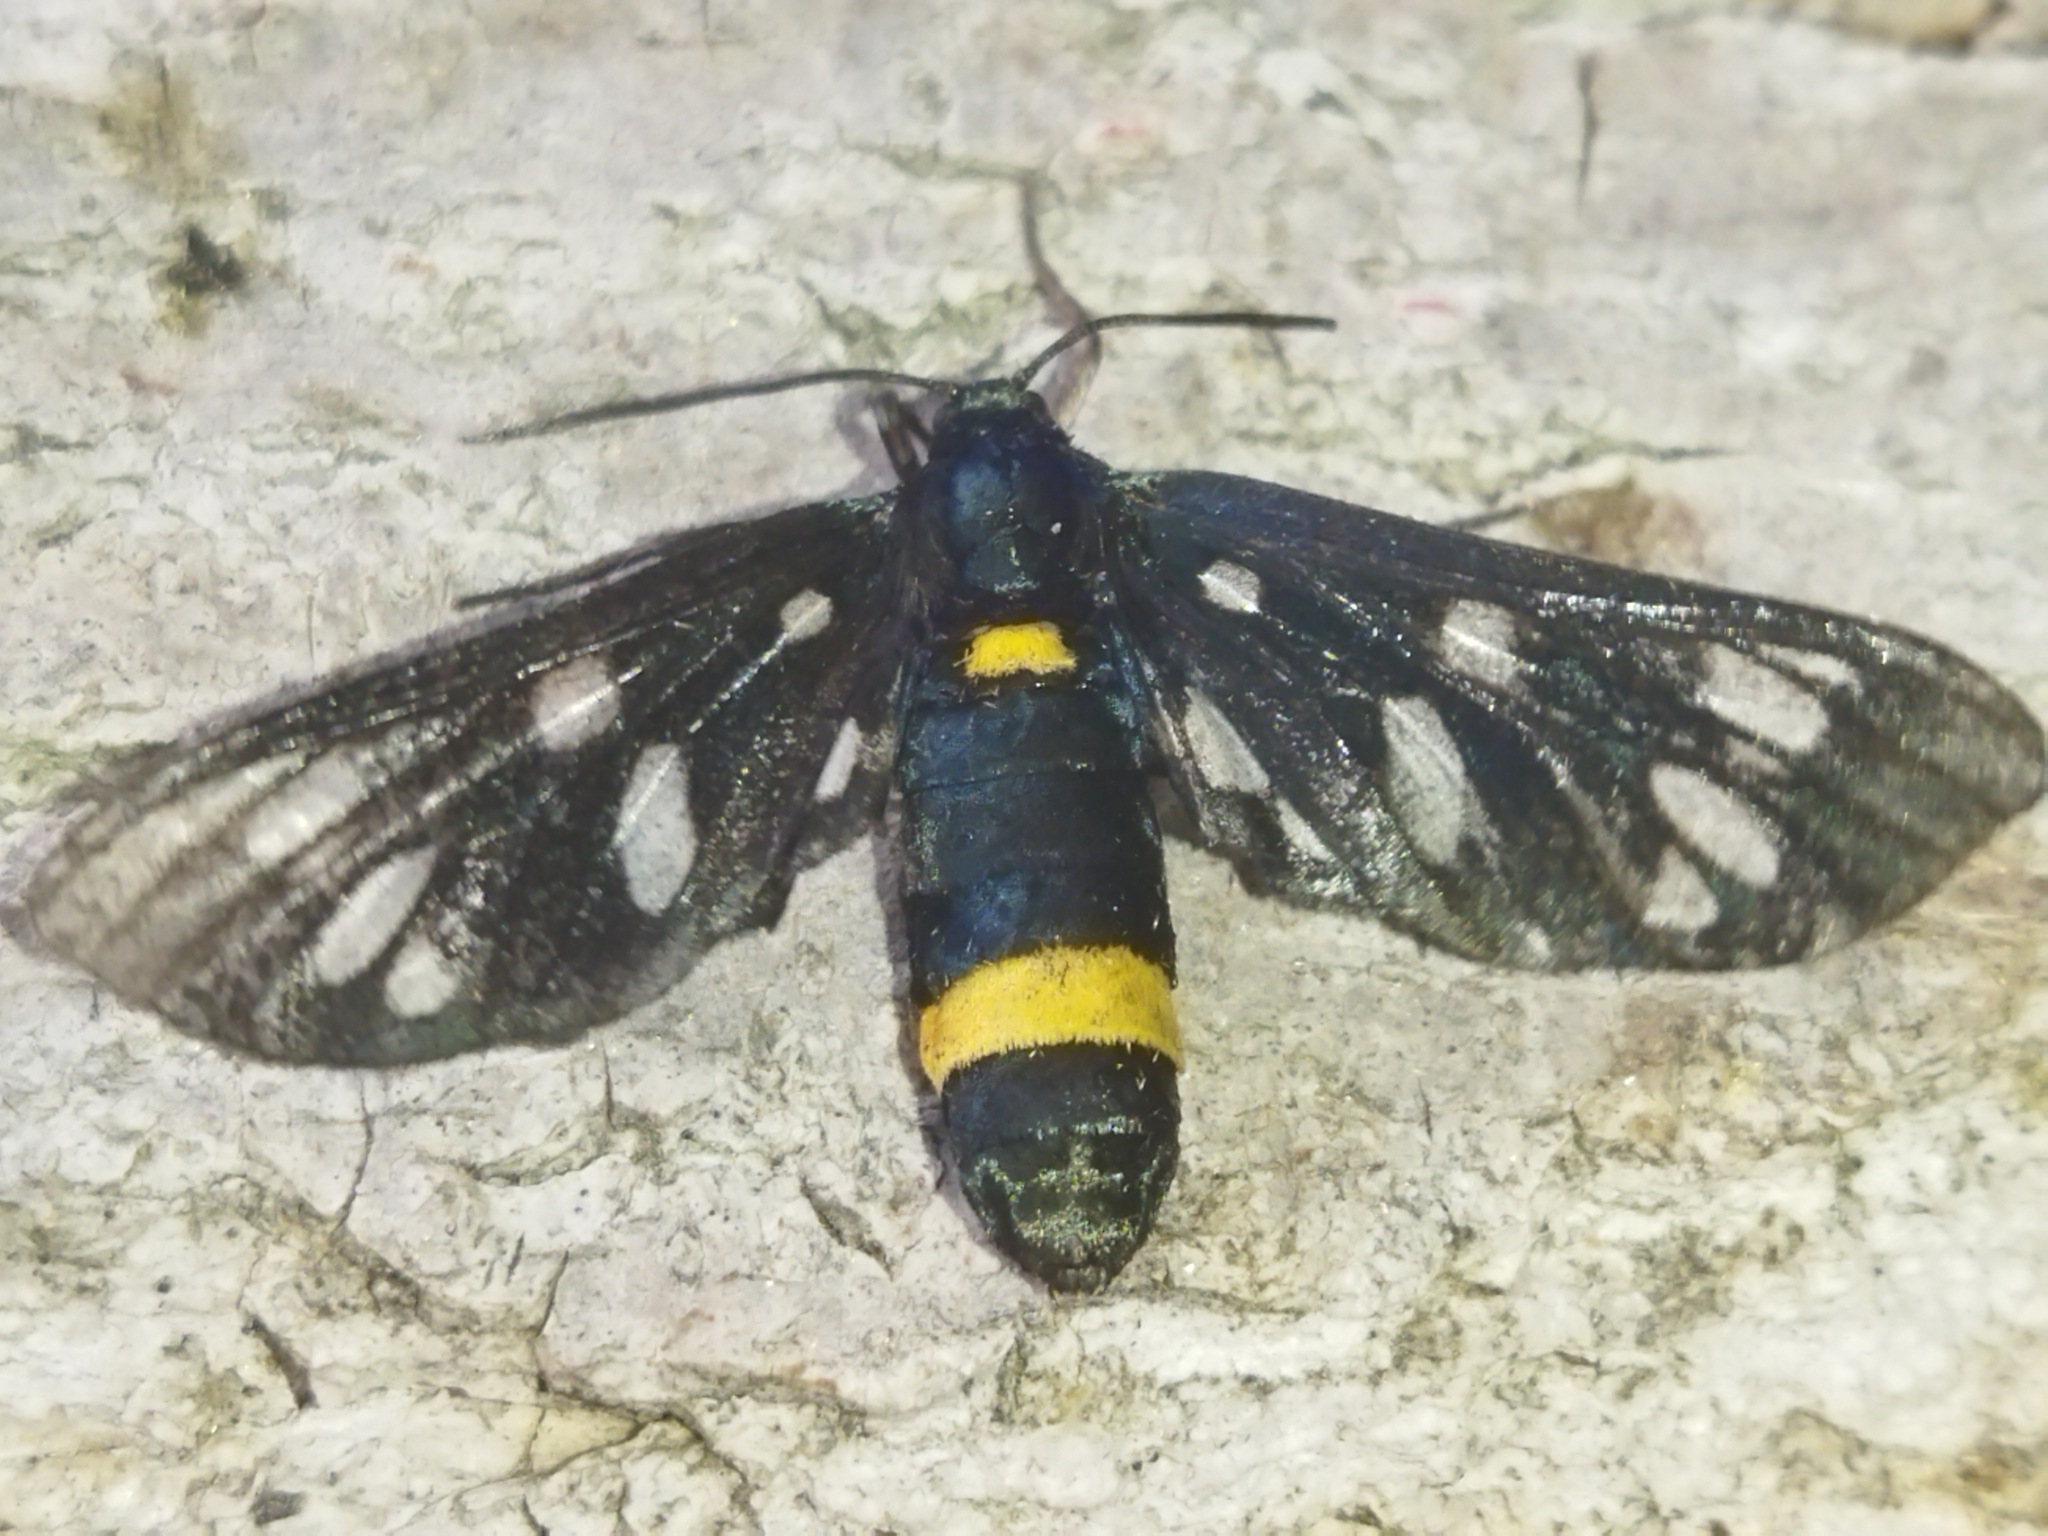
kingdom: Animalia
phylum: Arthropoda
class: Insecta
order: Lepidoptera
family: Erebidae
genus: Amata
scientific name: Amata phegea
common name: Nine-spotted
